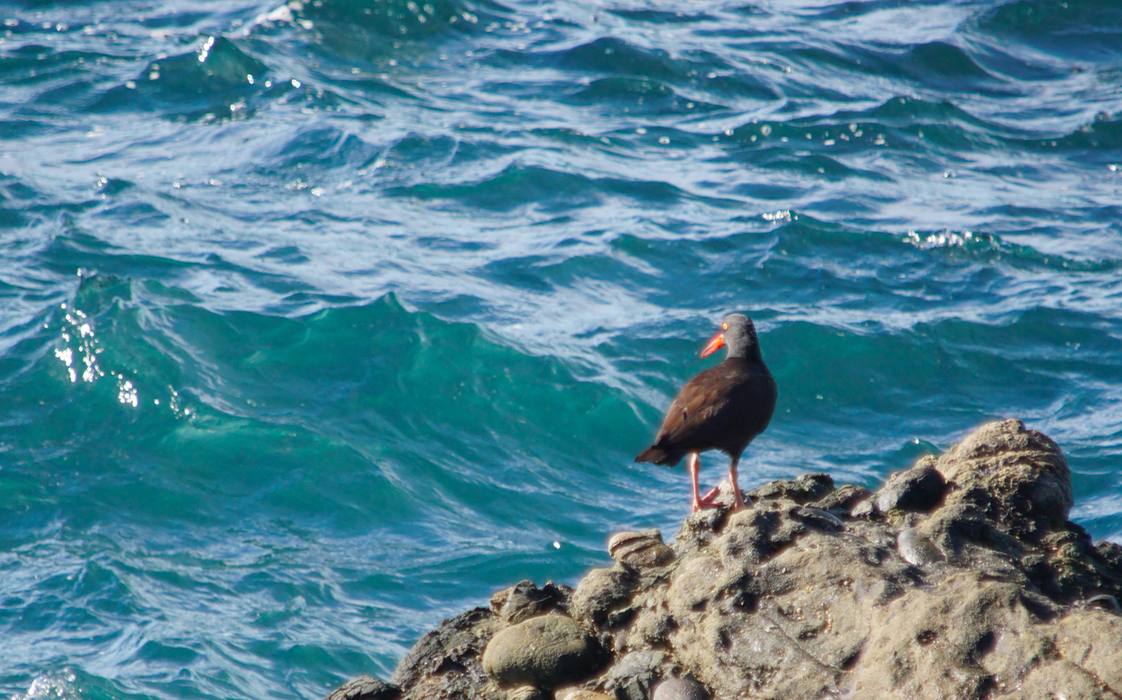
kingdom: Animalia
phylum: Chordata
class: Aves
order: Charadriiformes
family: Haematopodidae
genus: Haematopus
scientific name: Haematopus bachmani
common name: Black oystercatcher
